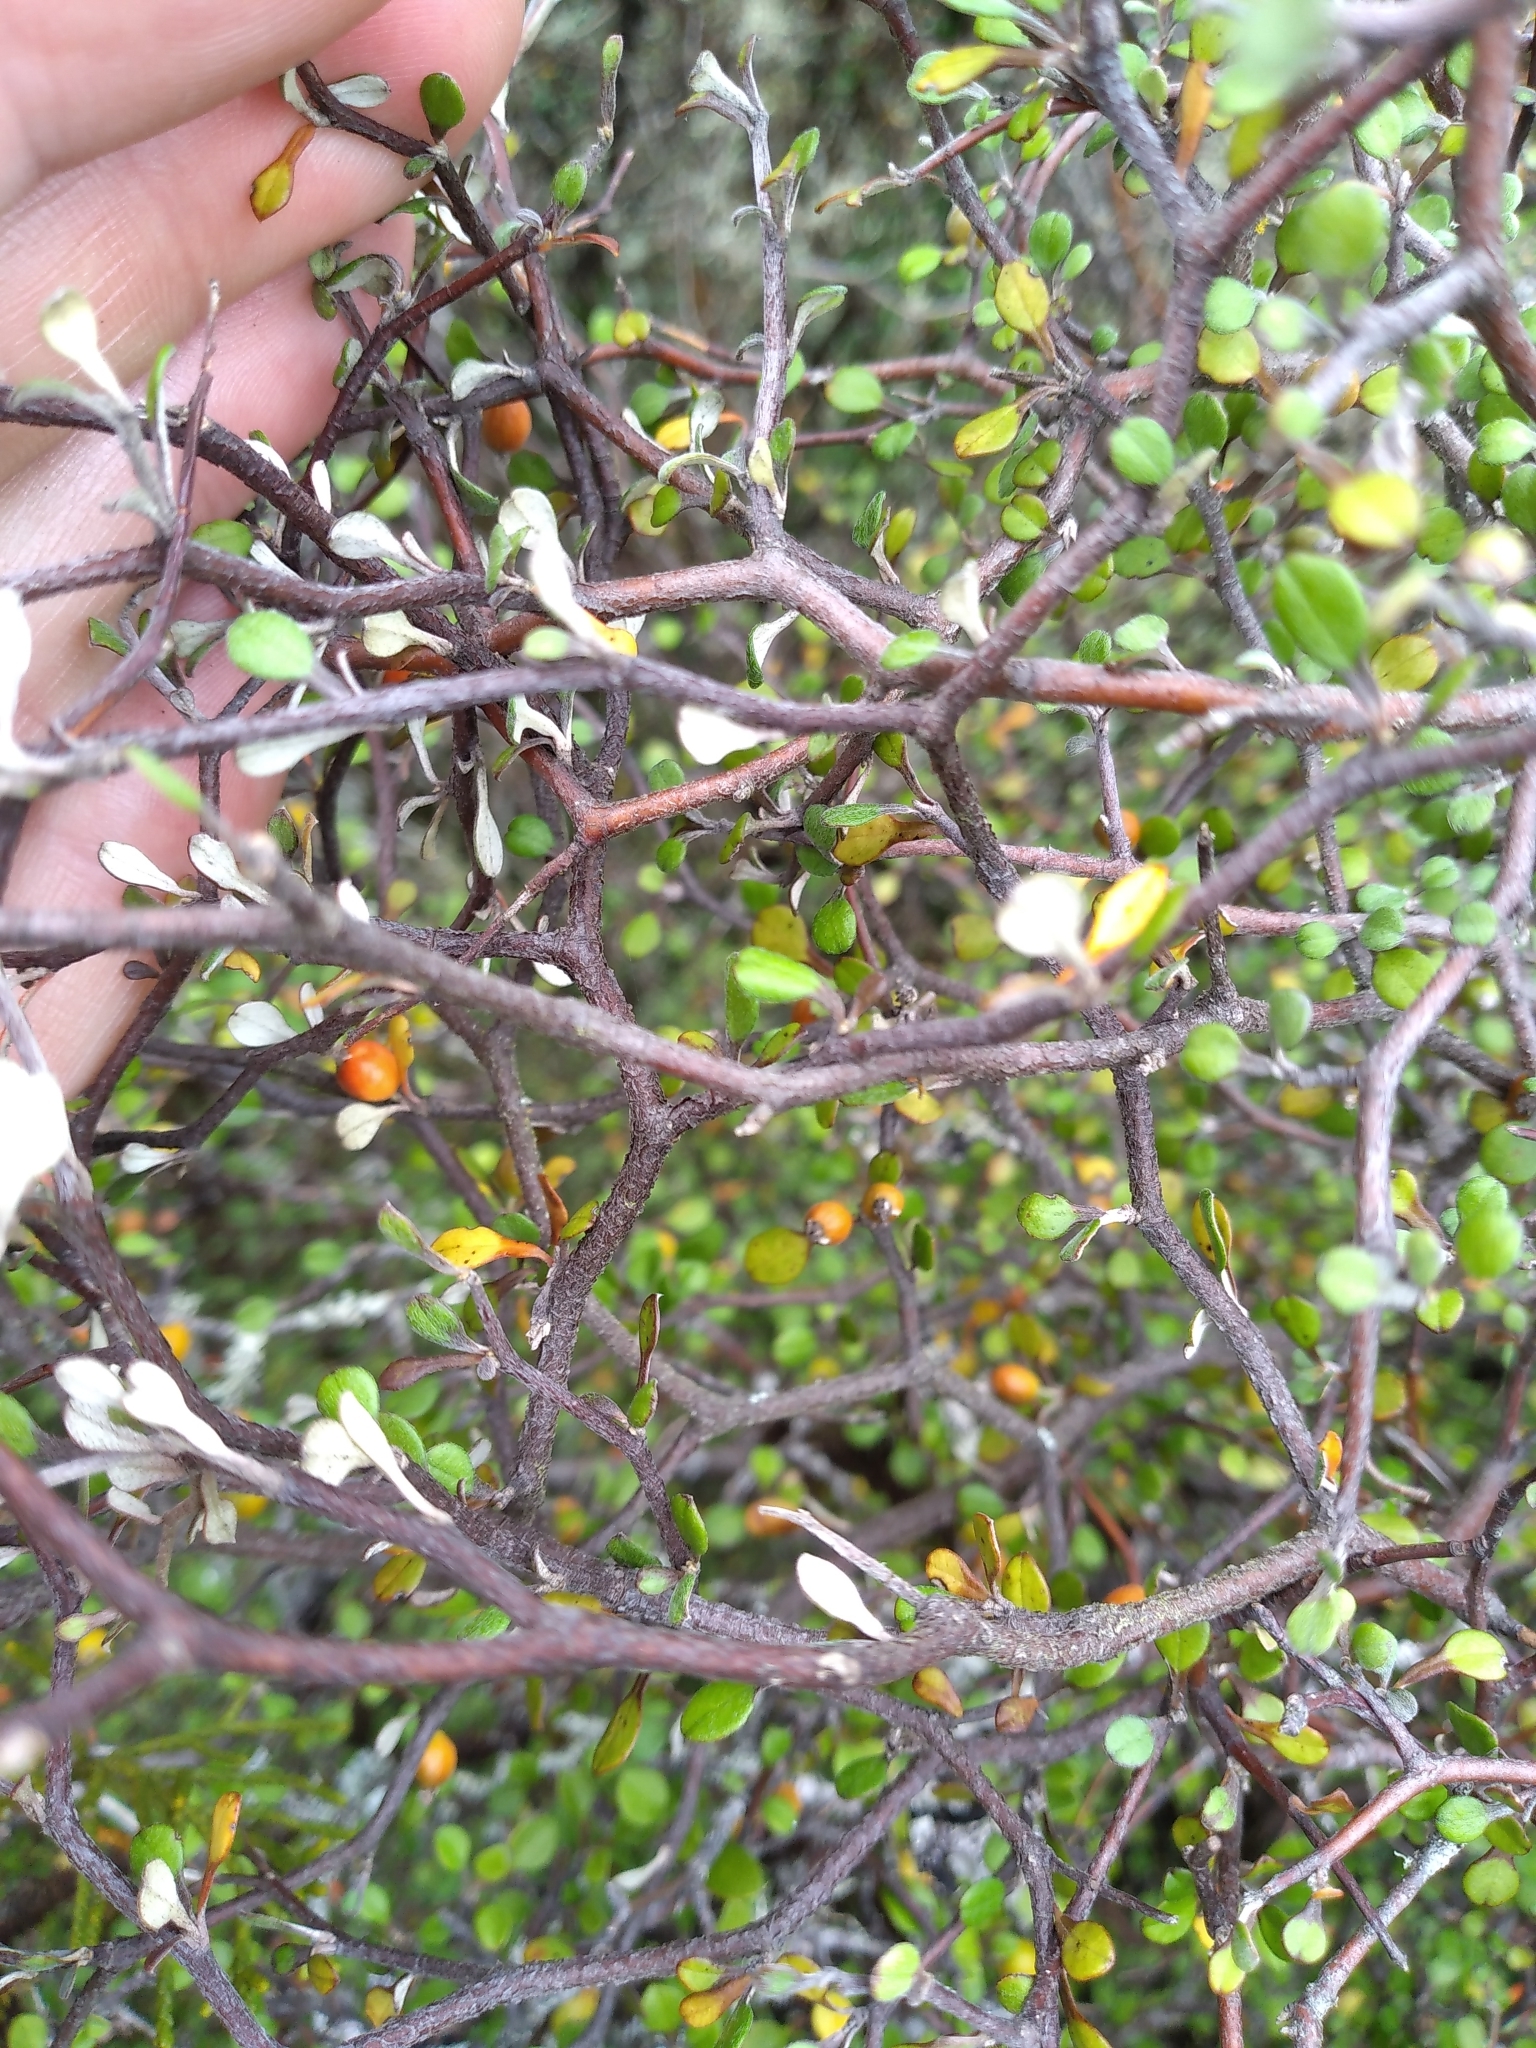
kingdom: Plantae
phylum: Tracheophyta
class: Magnoliopsida
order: Asterales
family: Argophyllaceae
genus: Corokia
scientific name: Corokia cotoneaster
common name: Wire nettingbush
